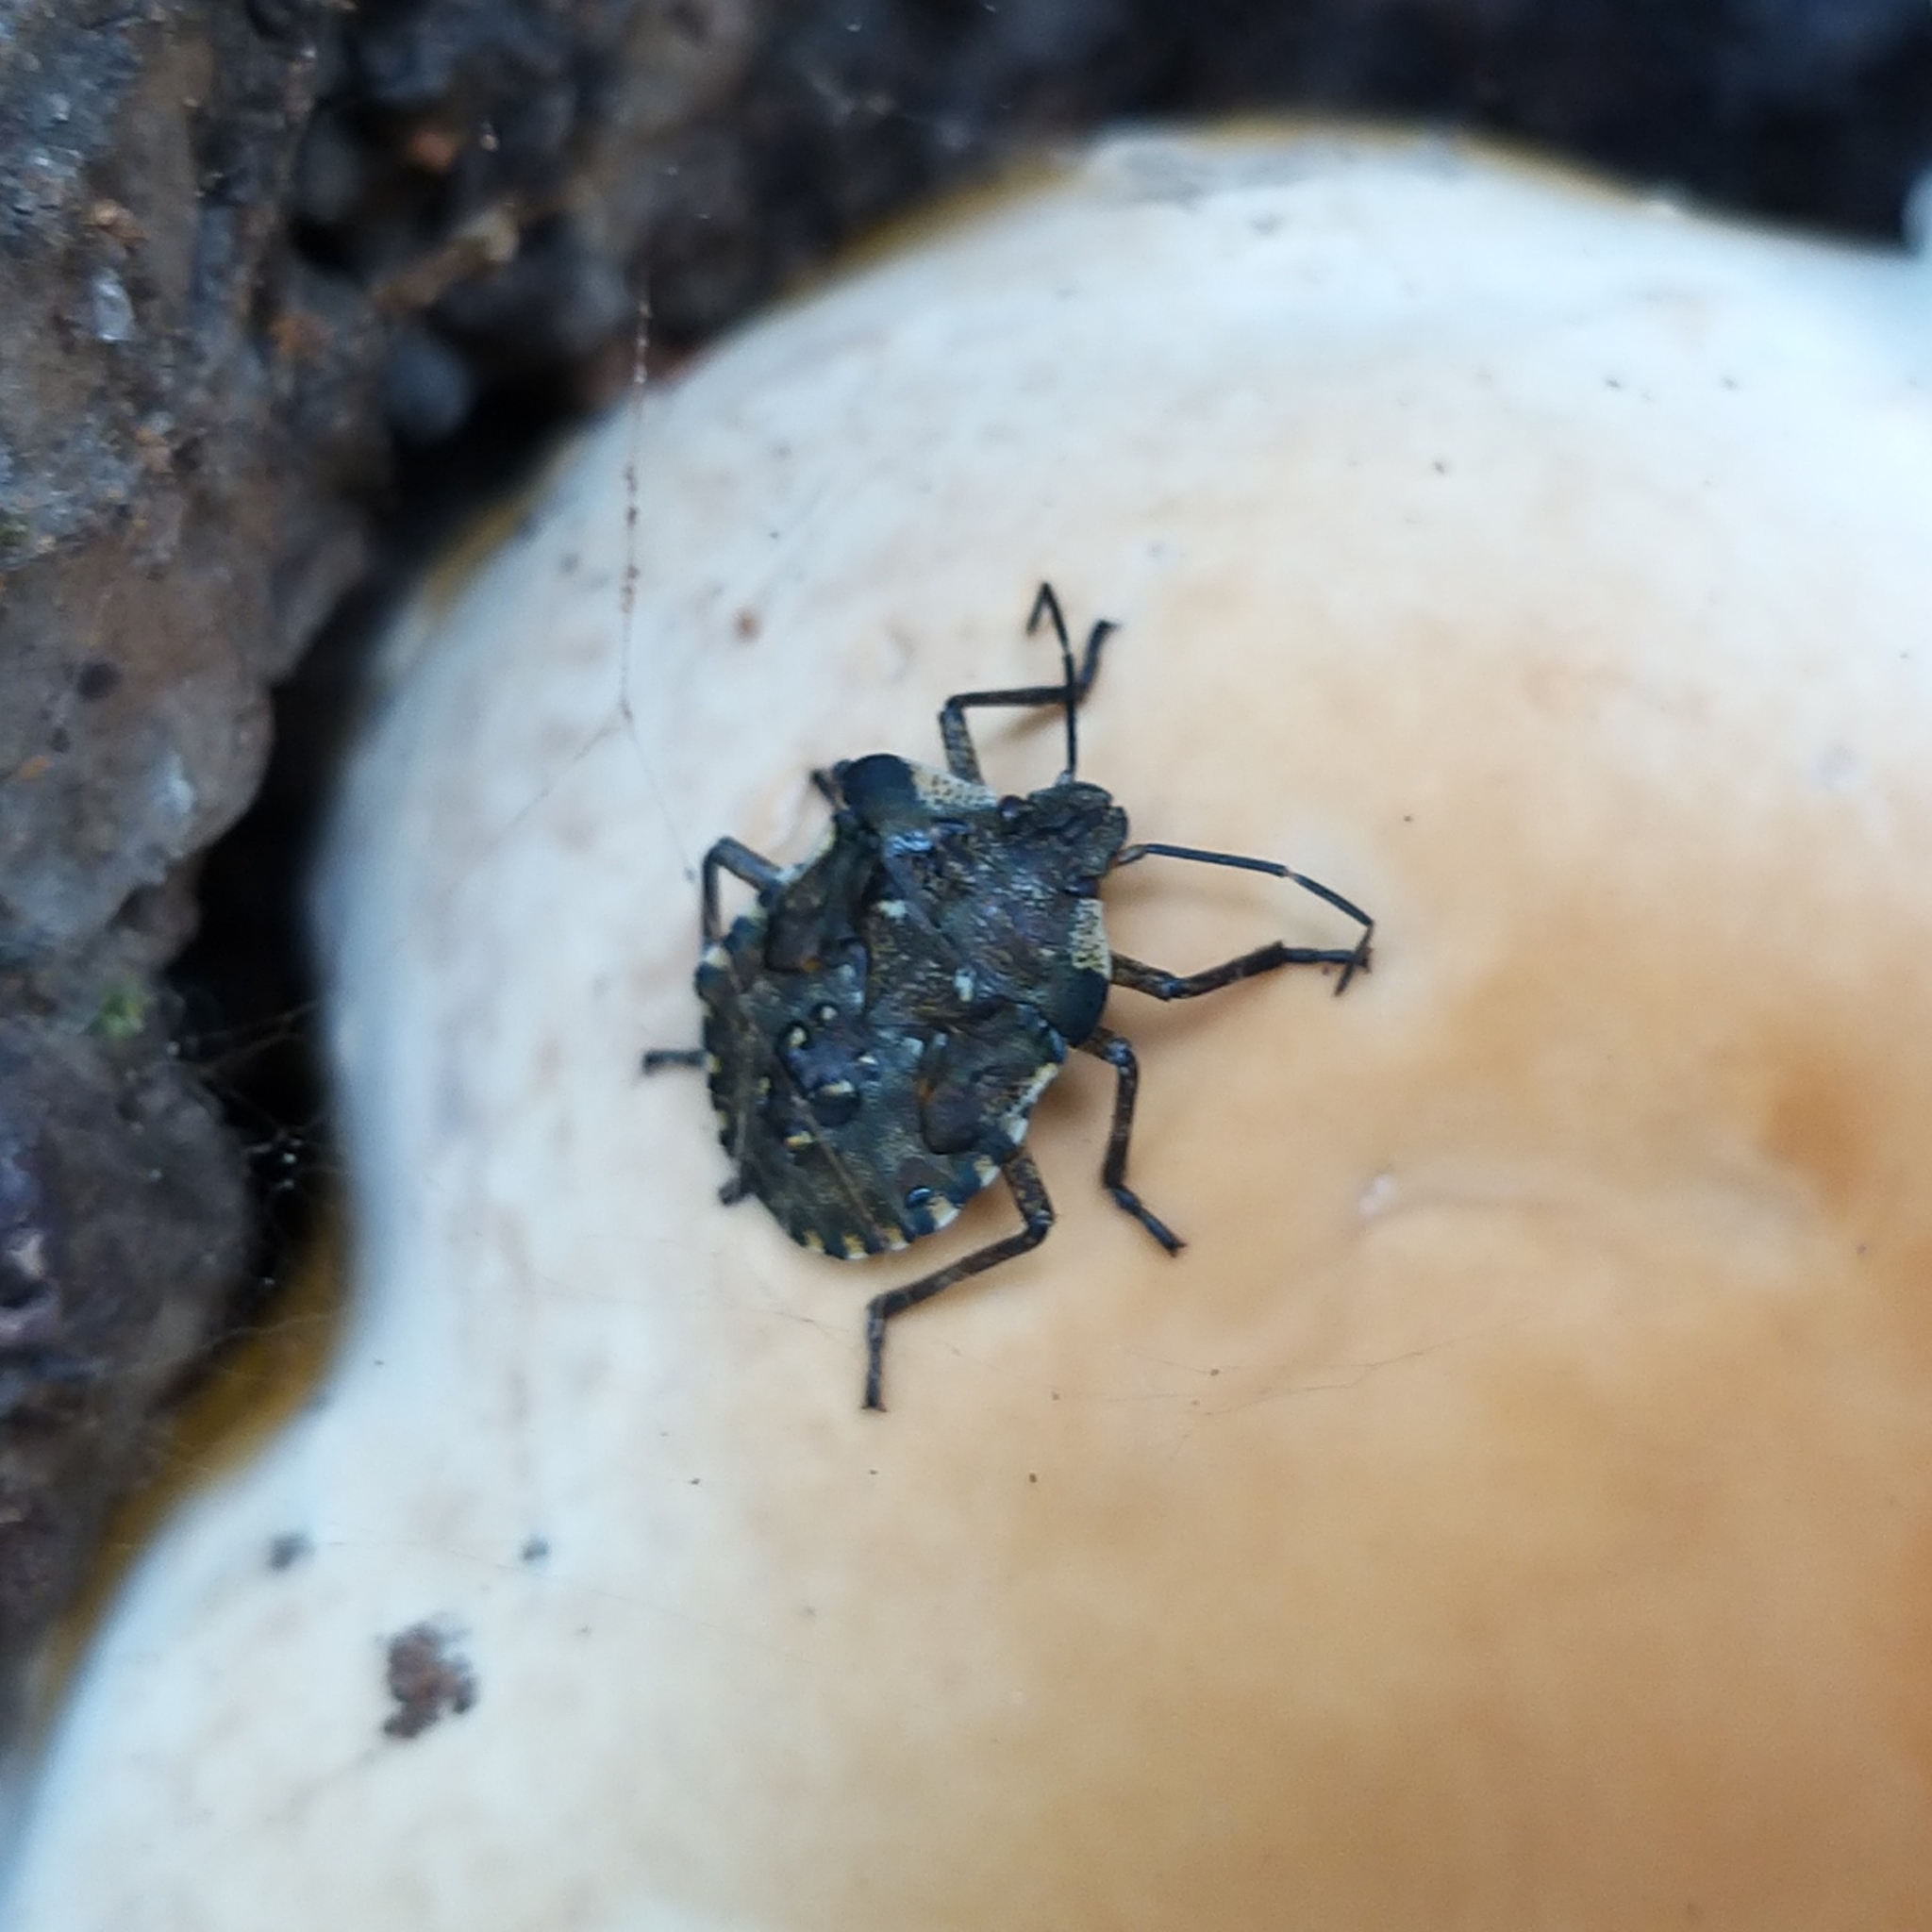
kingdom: Animalia
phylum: Arthropoda
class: Insecta
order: Hemiptera
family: Pentatomidae
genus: Pentatoma
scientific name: Pentatoma rufipes
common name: Forest bug
